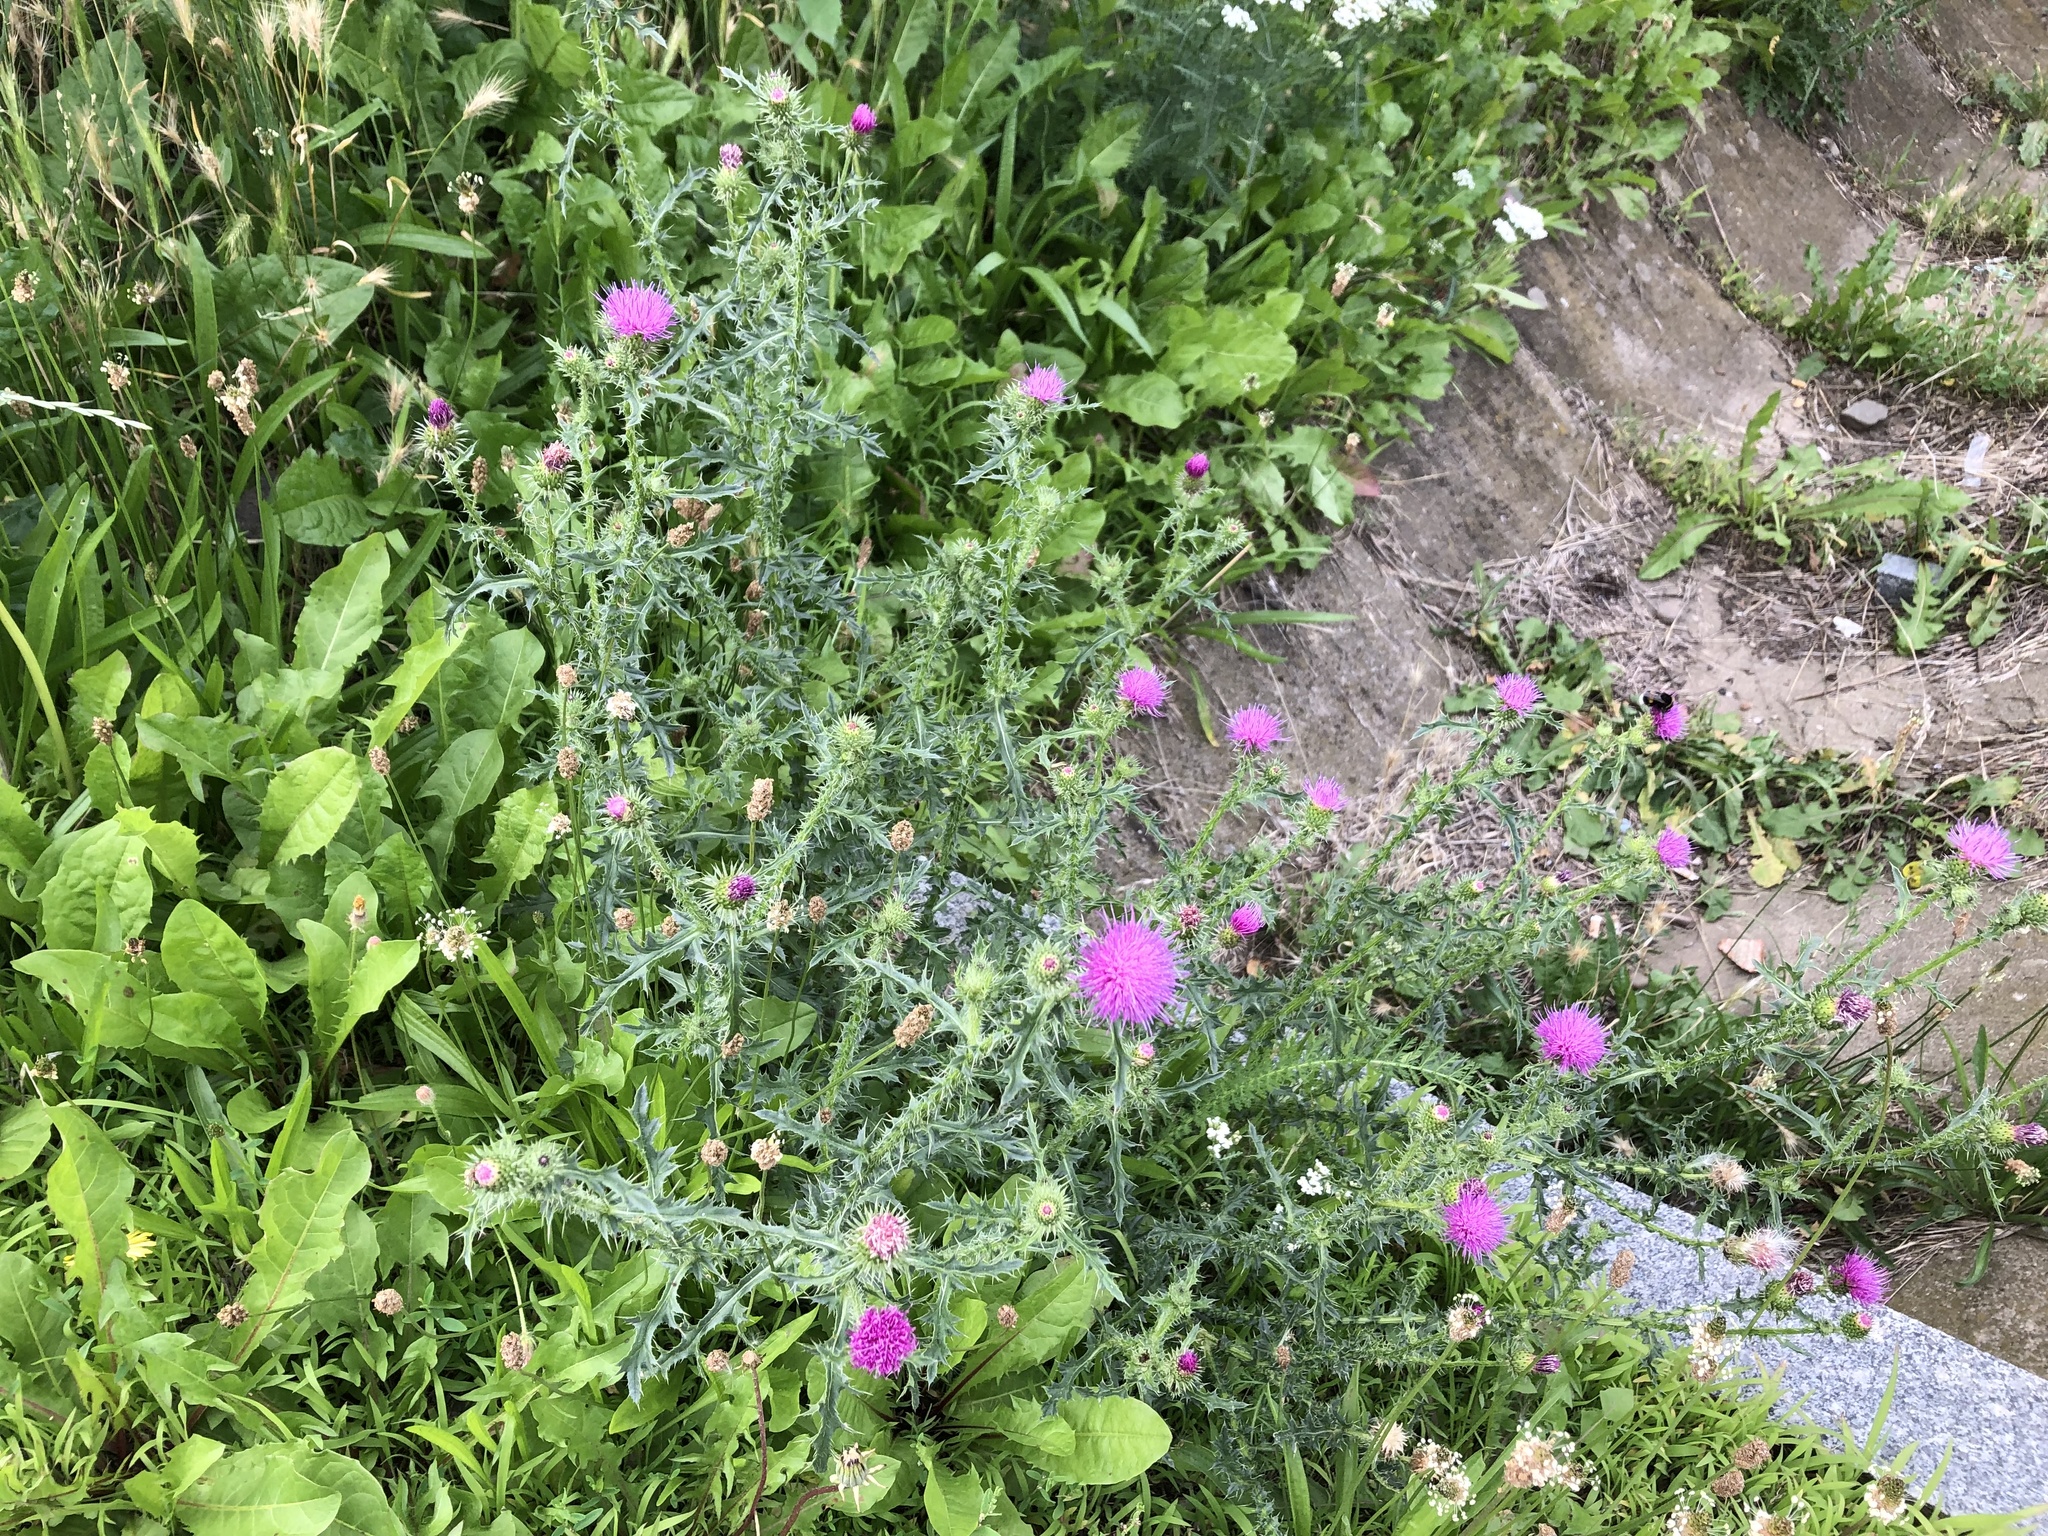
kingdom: Plantae
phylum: Tracheophyta
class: Magnoliopsida
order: Asterales
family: Asteraceae
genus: Carduus
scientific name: Carduus acanthoides
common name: Plumeless thistle
